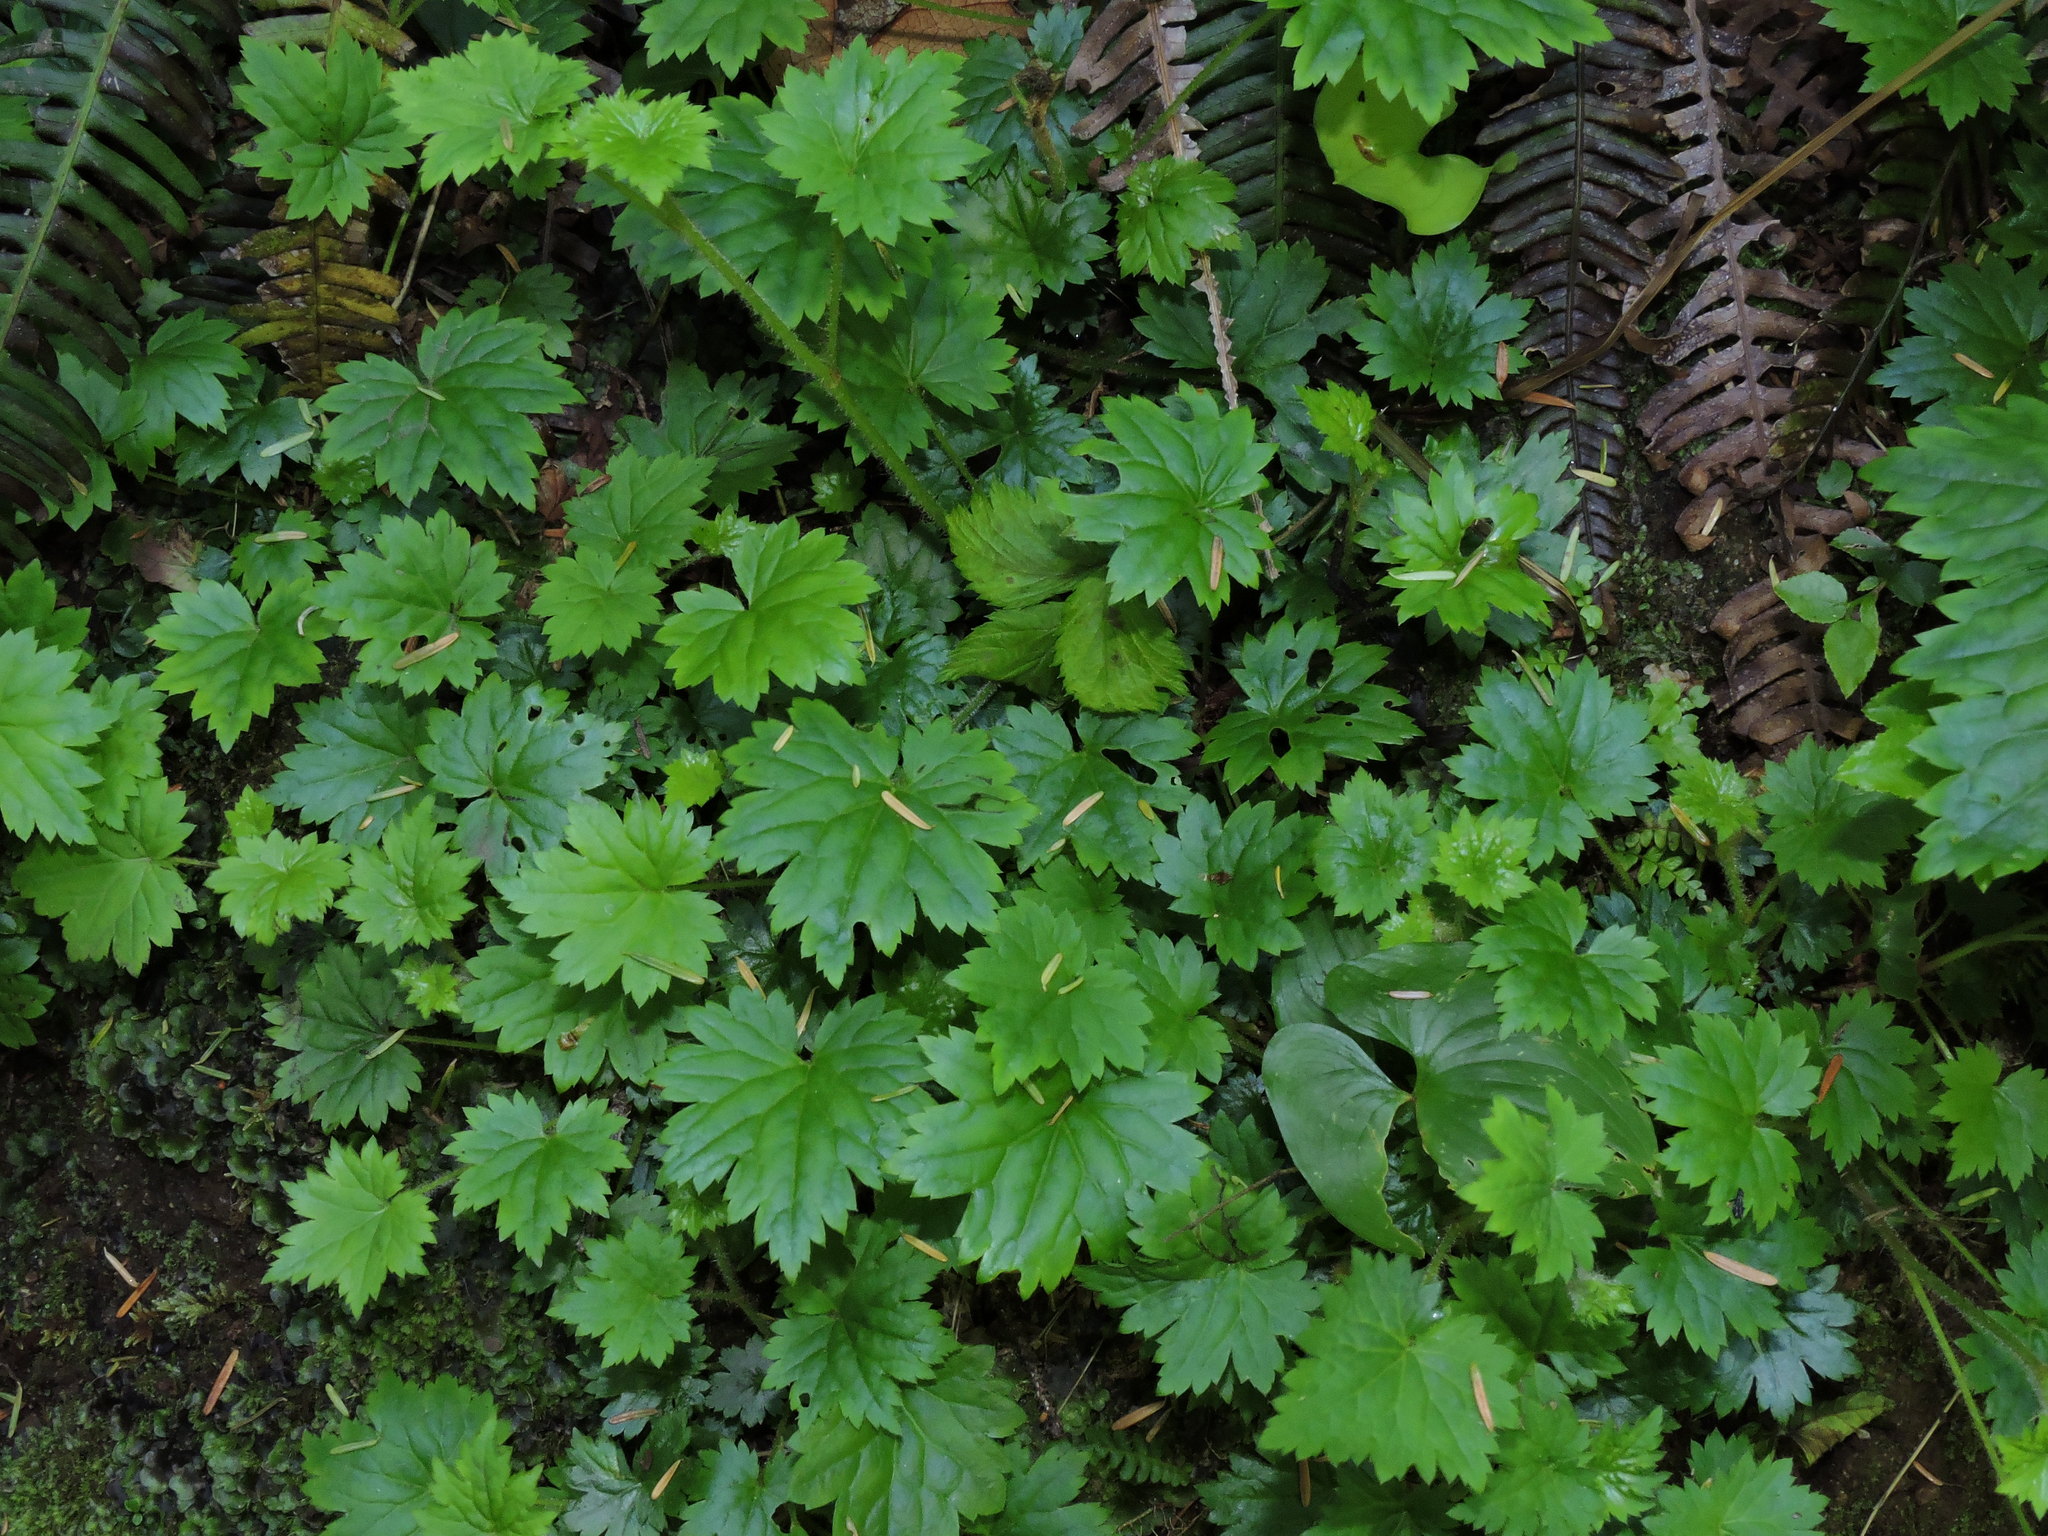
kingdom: Plantae
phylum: Tracheophyta
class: Magnoliopsida
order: Saxifragales
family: Saxifragaceae
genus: Boykinia
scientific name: Boykinia occidentalis
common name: Coast boykinia
